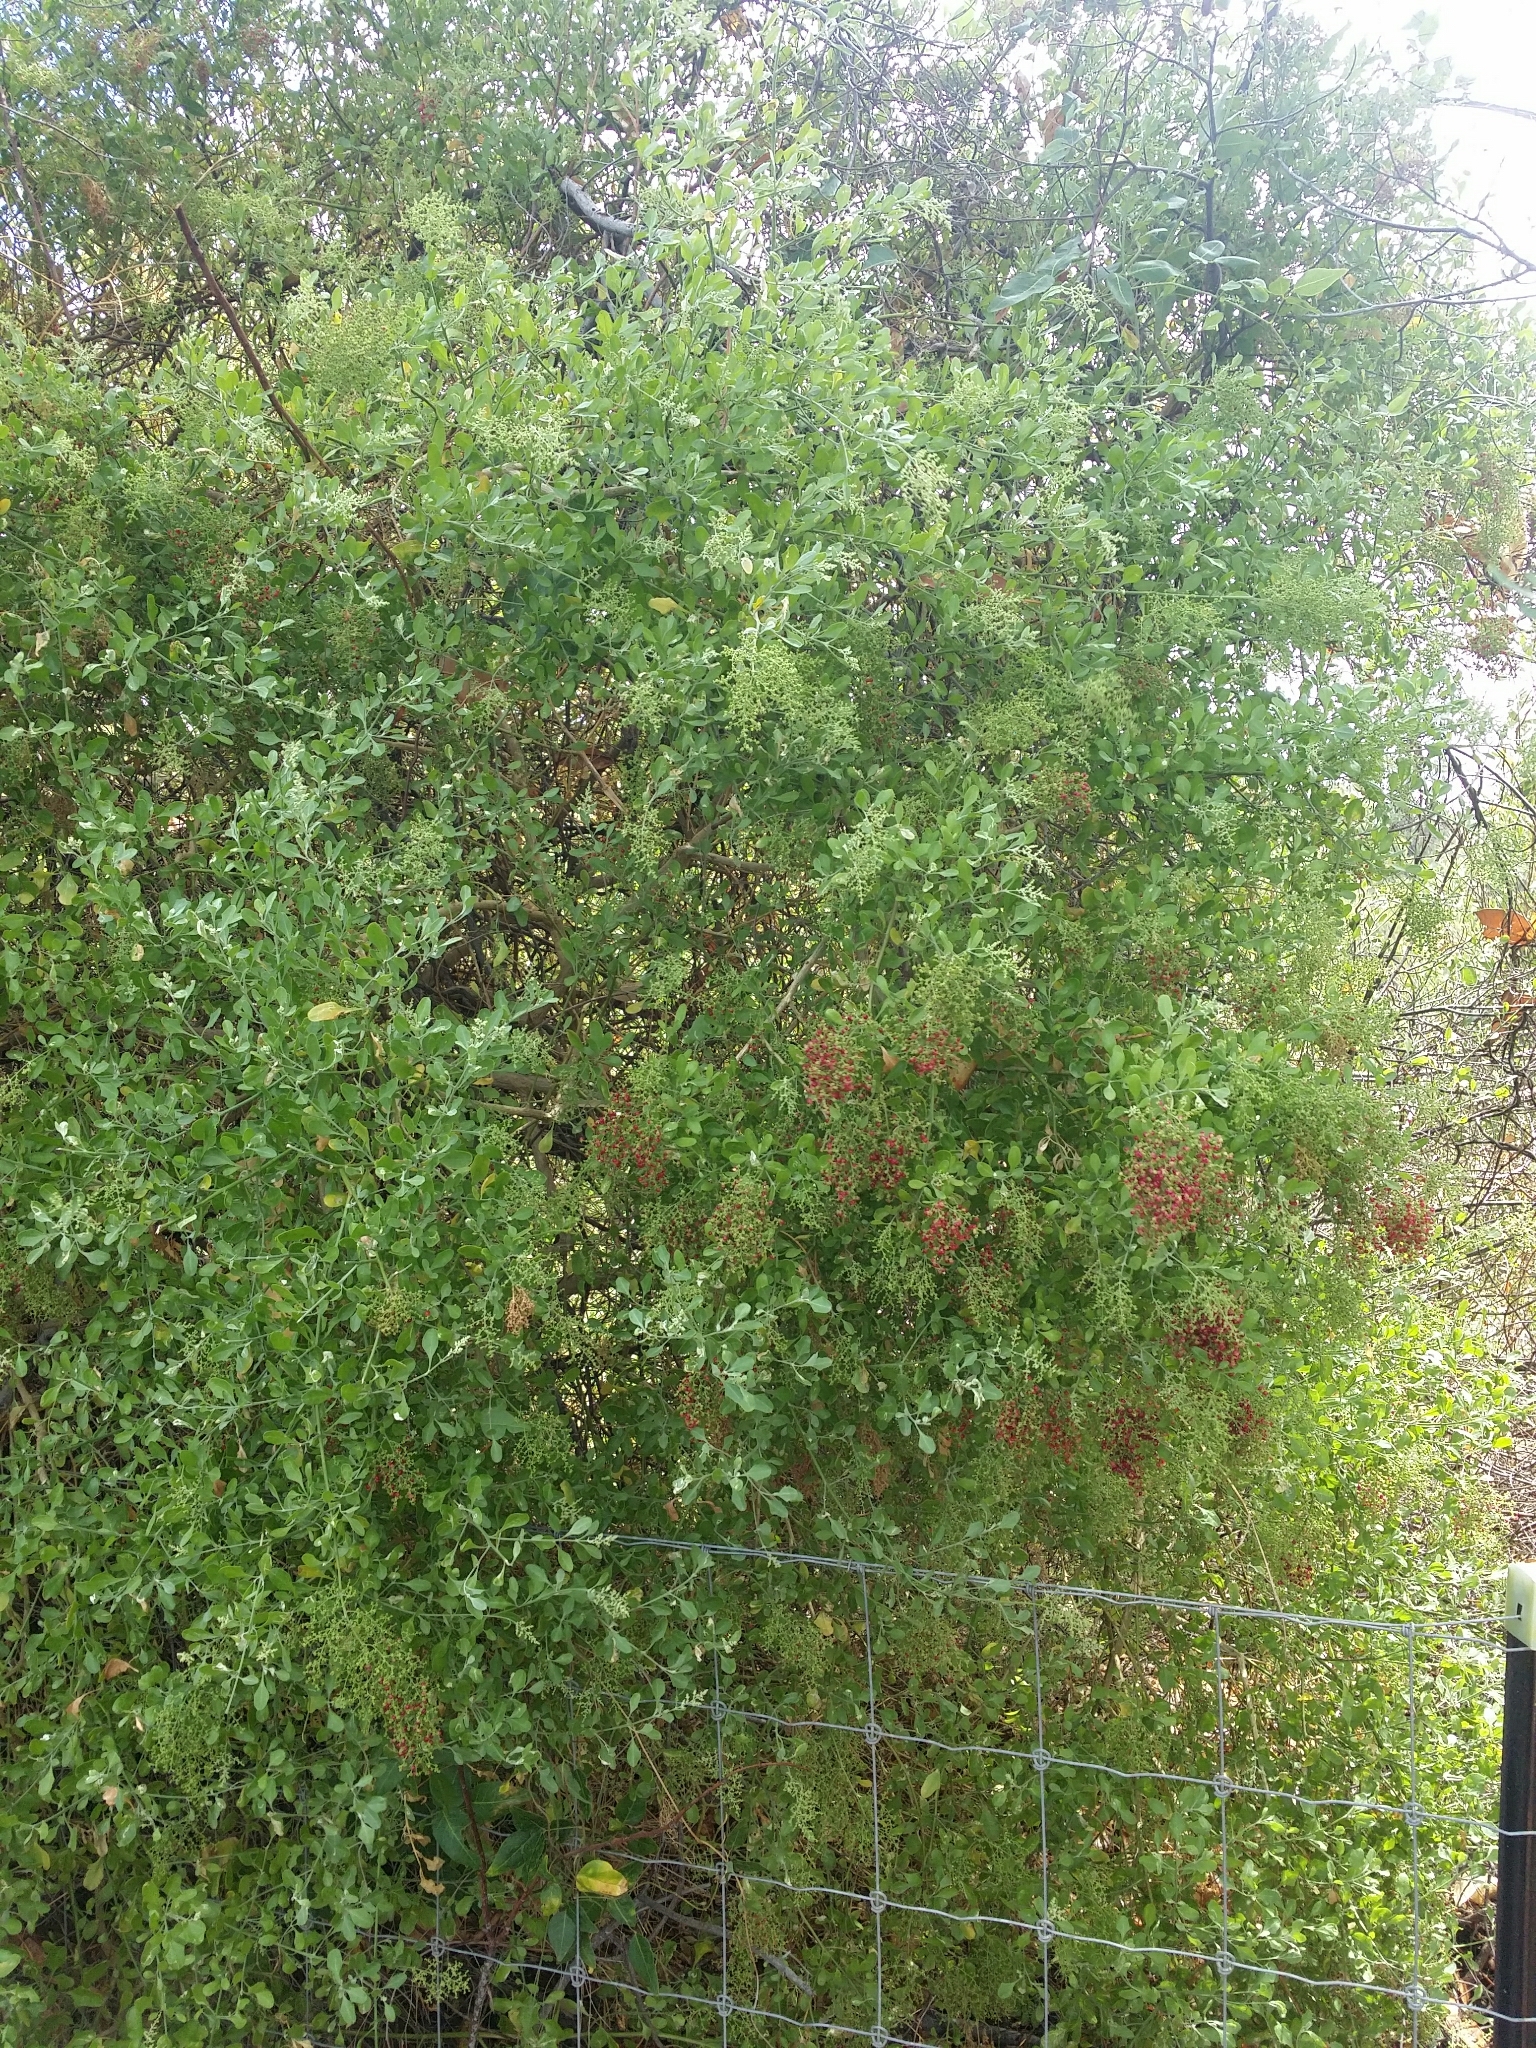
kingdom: Plantae
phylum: Tracheophyta
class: Magnoliopsida
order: Caryophyllales
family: Amaranthaceae
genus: Chenopodium
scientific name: Chenopodium baccatum
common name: Coastal-saltbush
